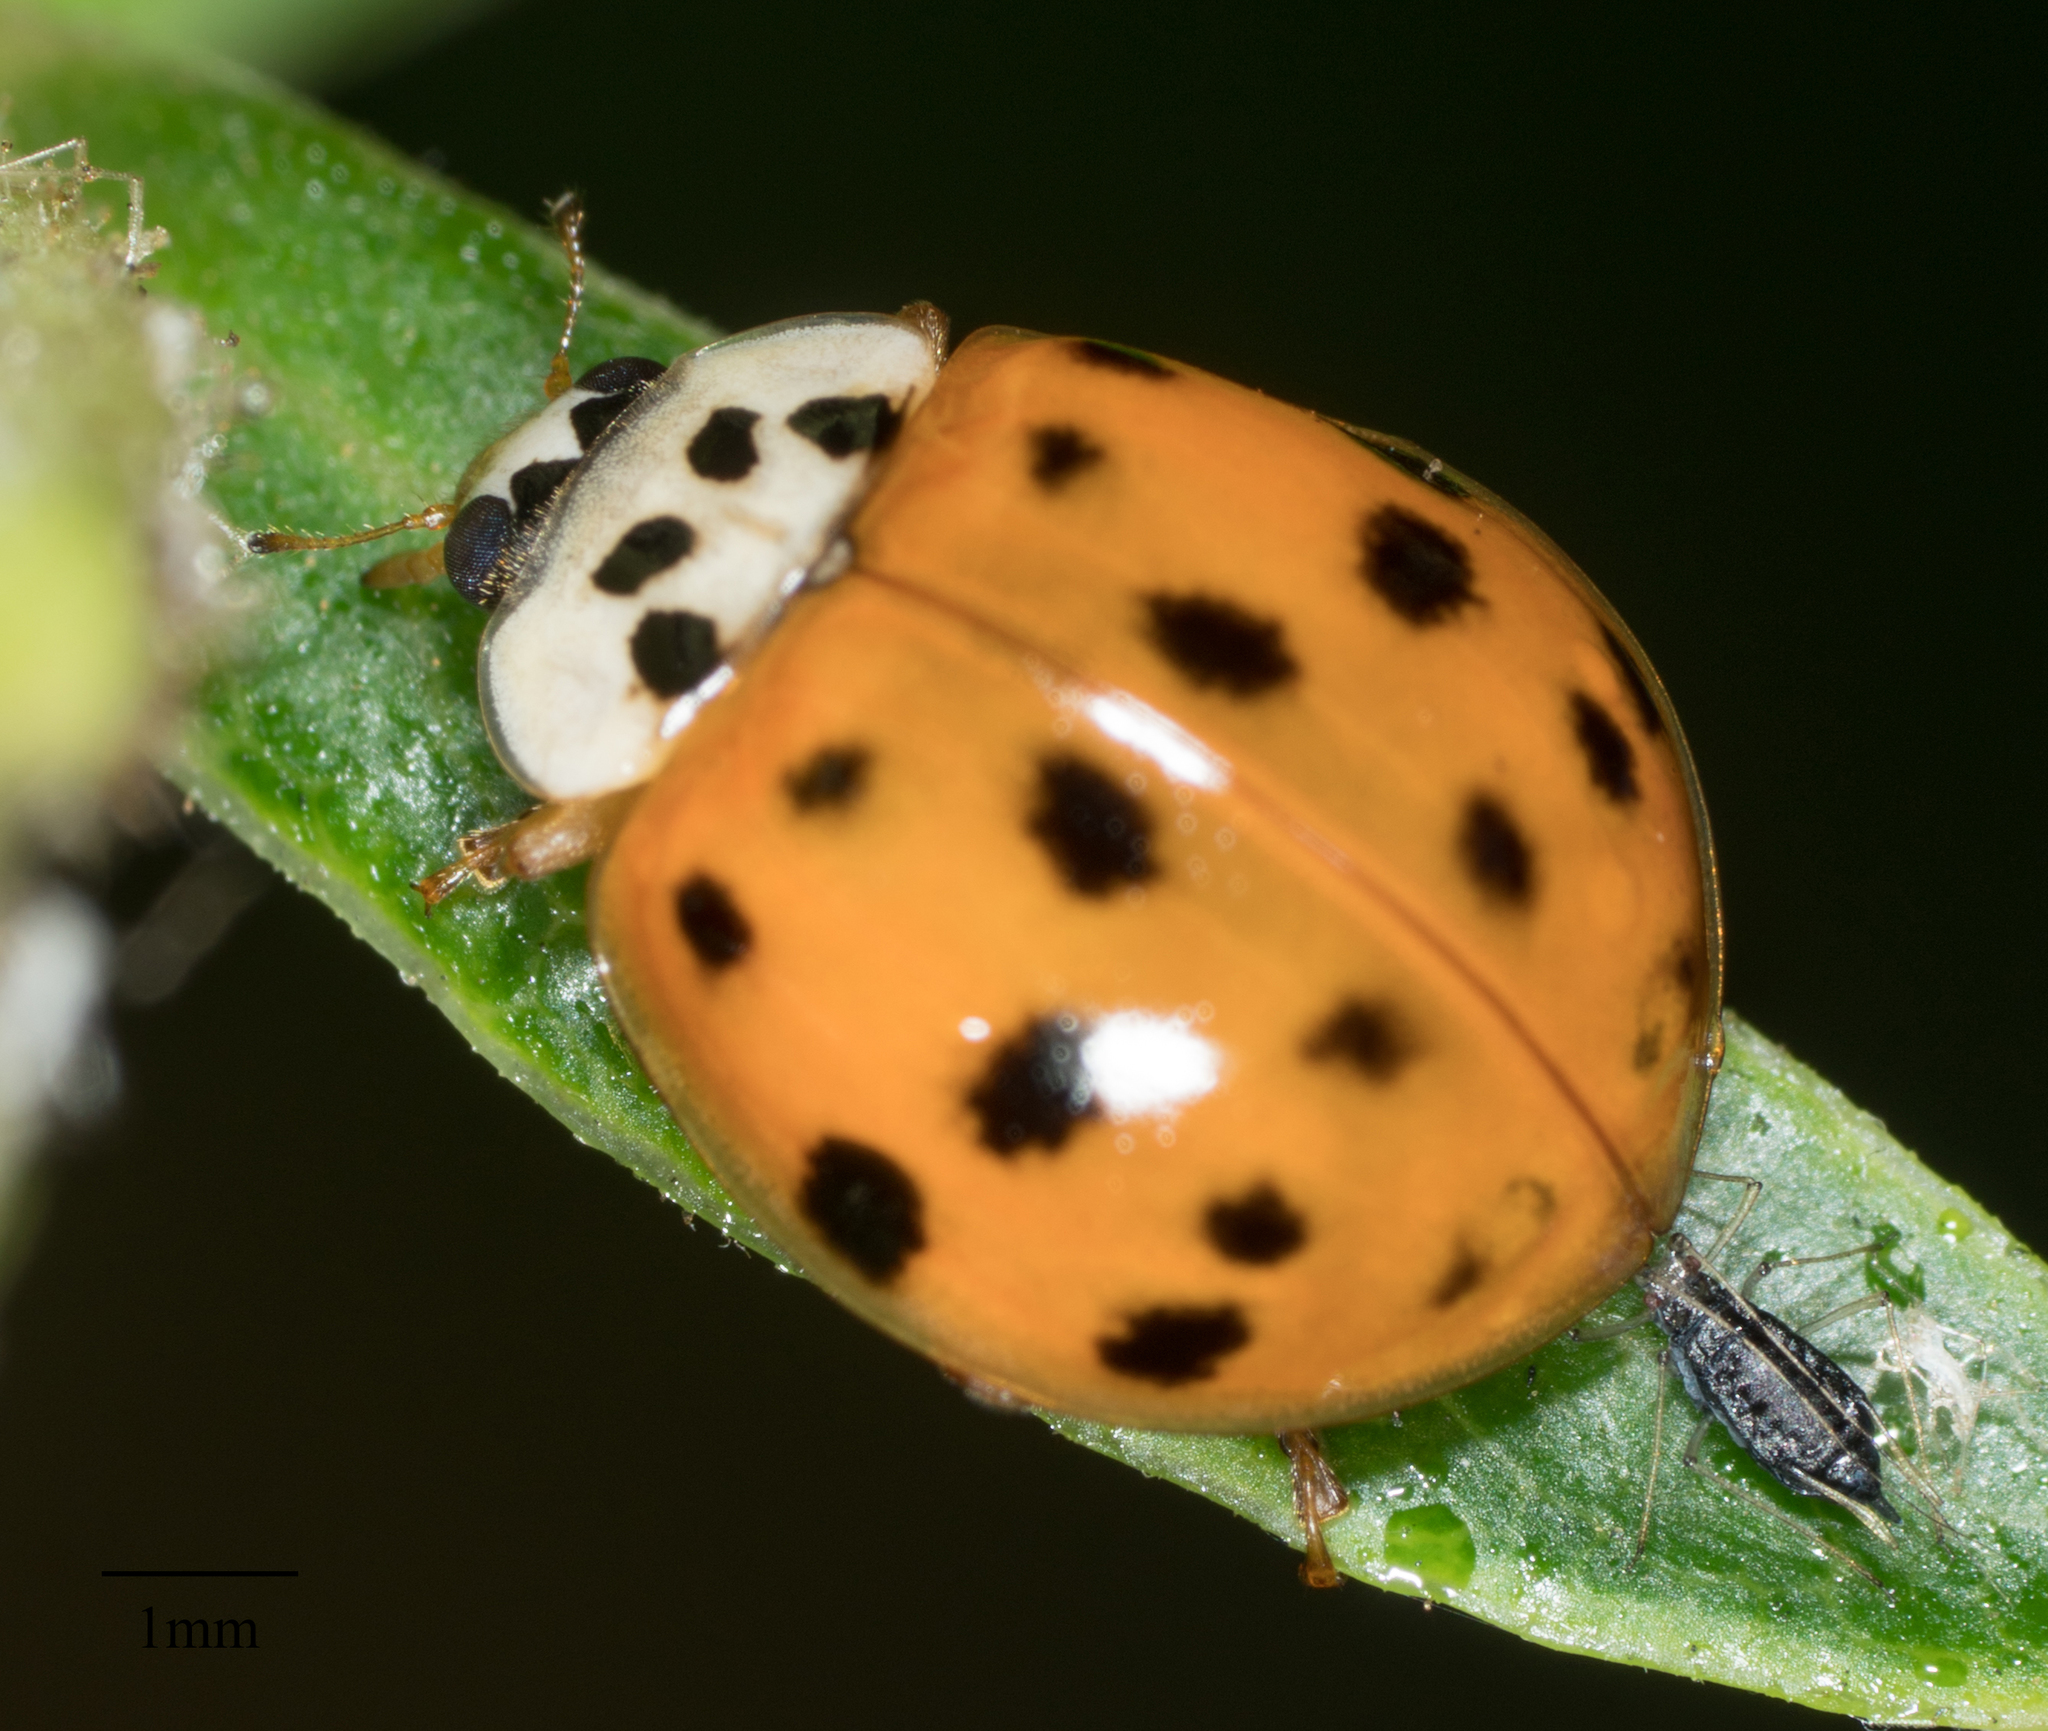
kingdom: Animalia
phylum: Arthropoda
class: Insecta
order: Coleoptera
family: Coccinellidae
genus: Harmonia
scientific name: Harmonia axyridis
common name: Harlequin ladybird
